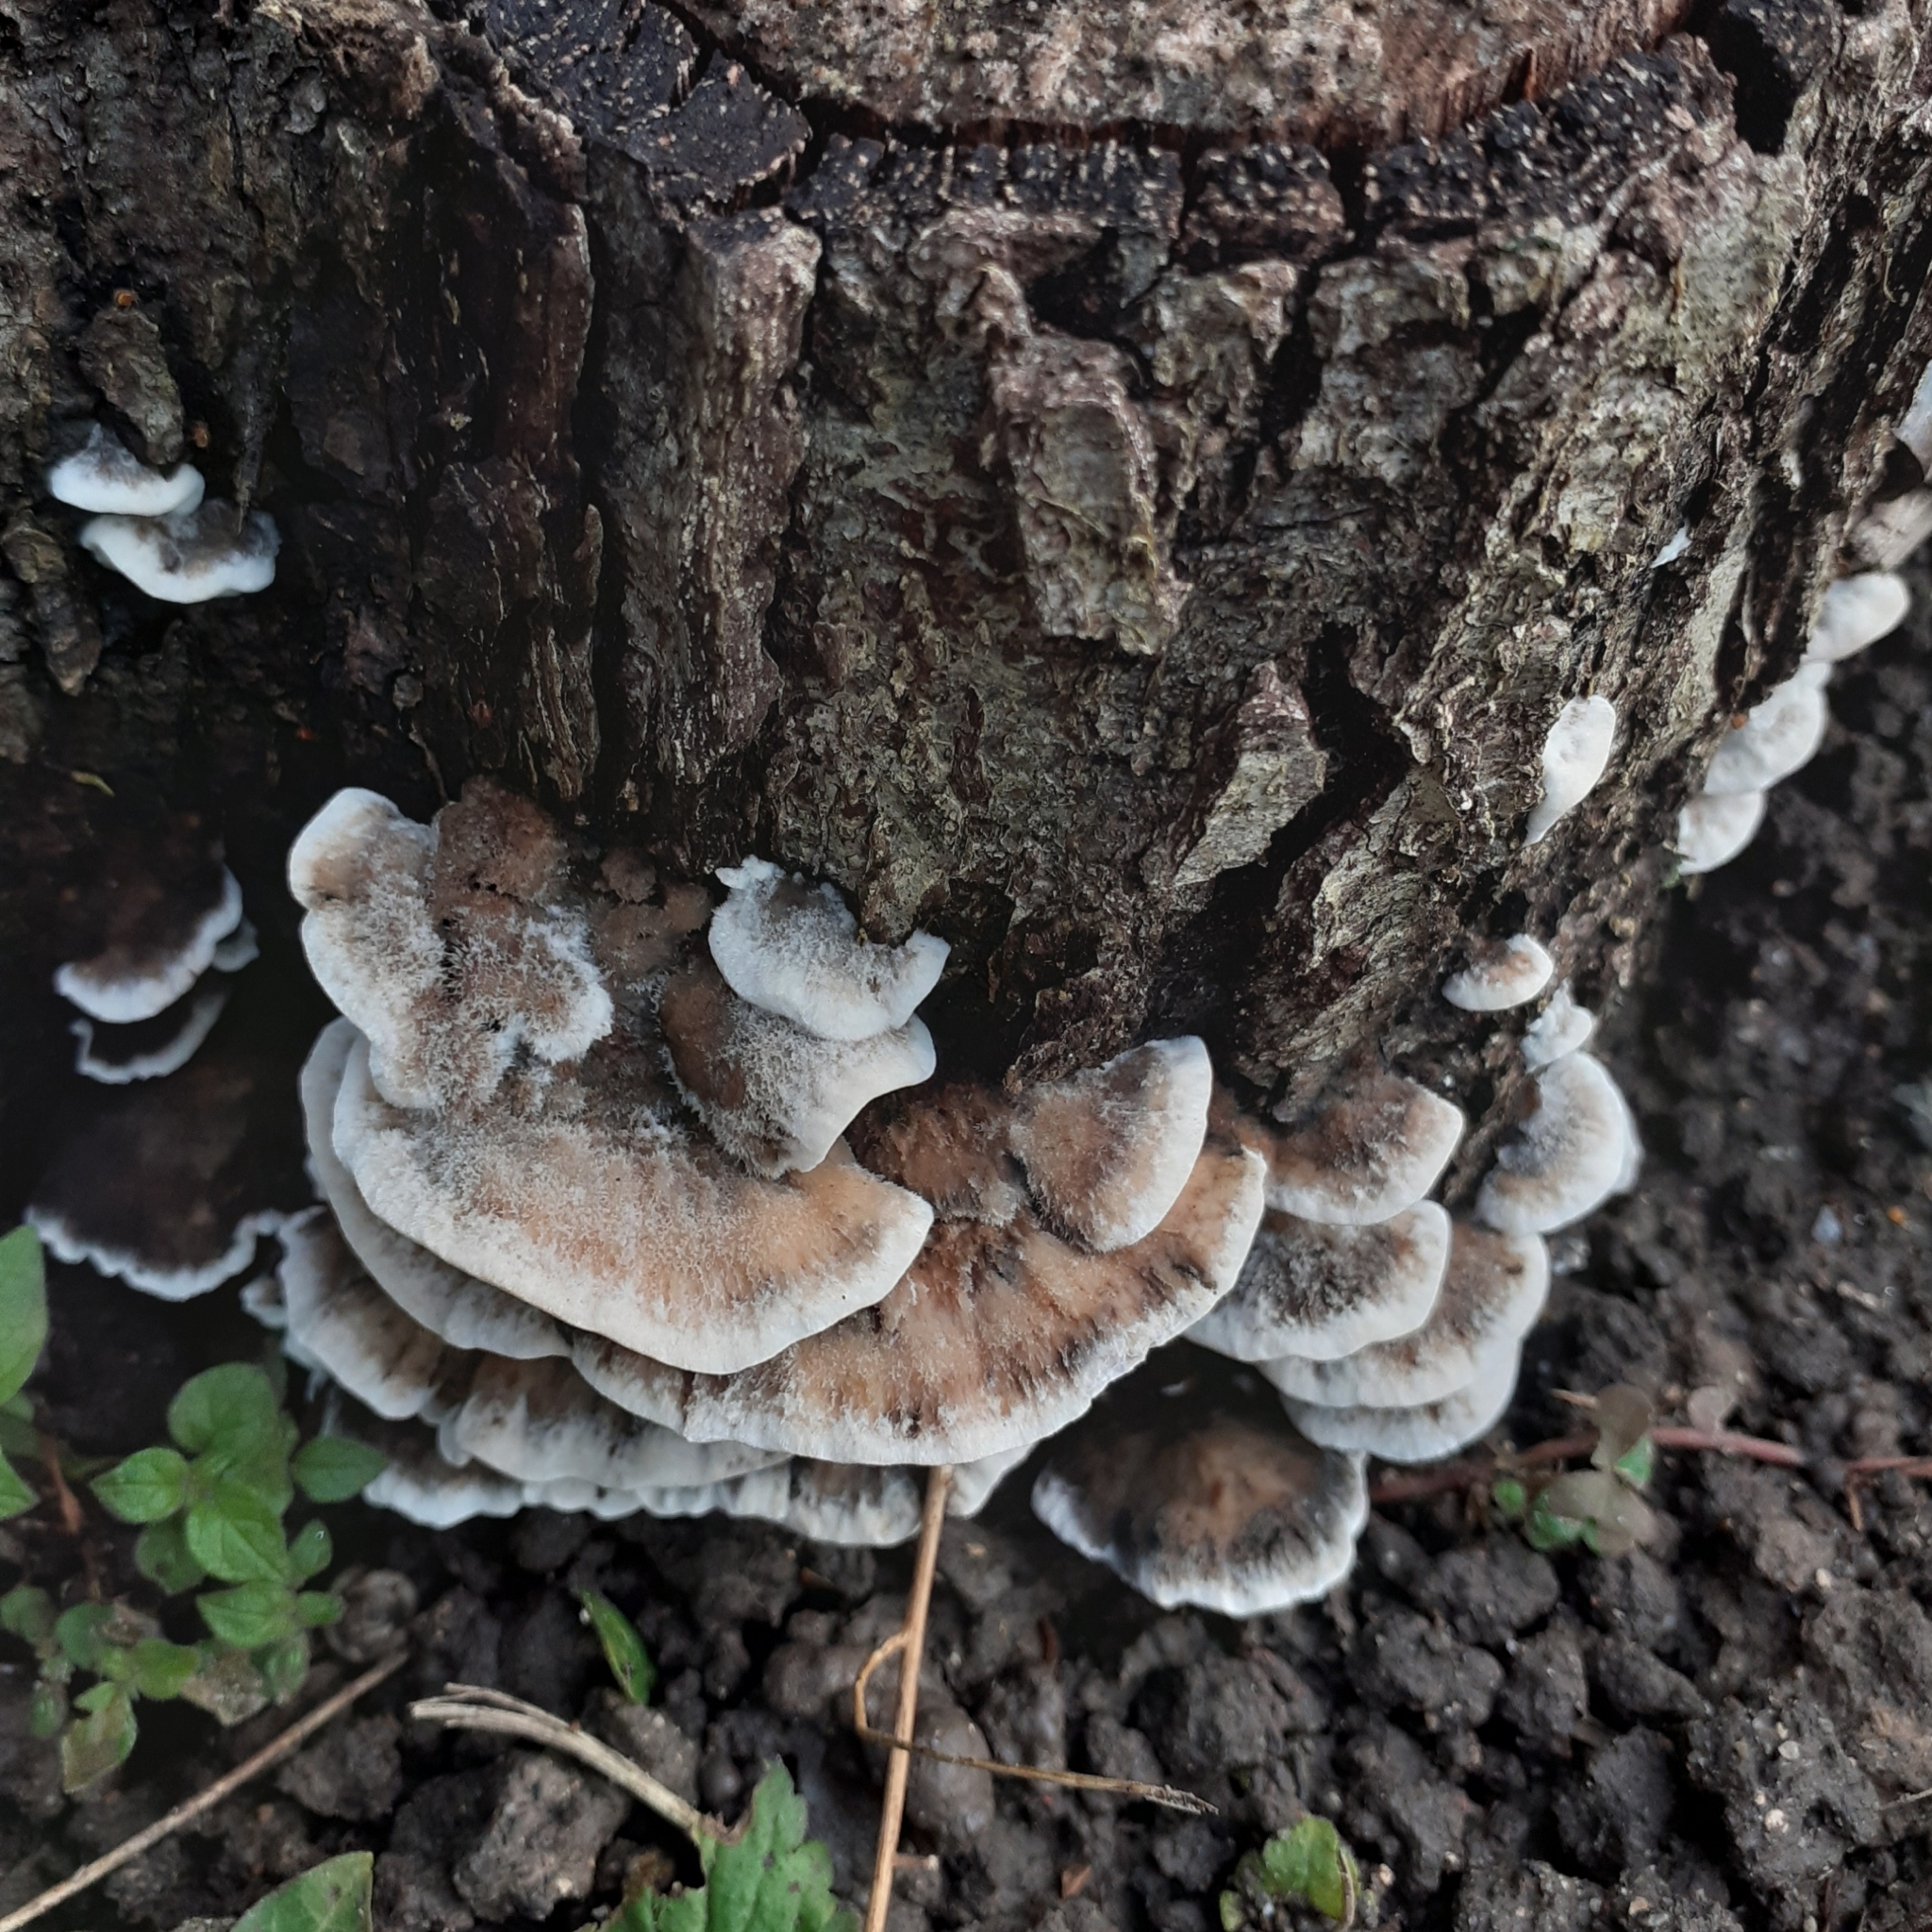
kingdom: Fungi
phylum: Basidiomycota
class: Agaricomycetes
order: Polyporales
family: Phanerochaetaceae
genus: Bjerkandera
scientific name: Bjerkandera adusta
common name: Smoky bracket
